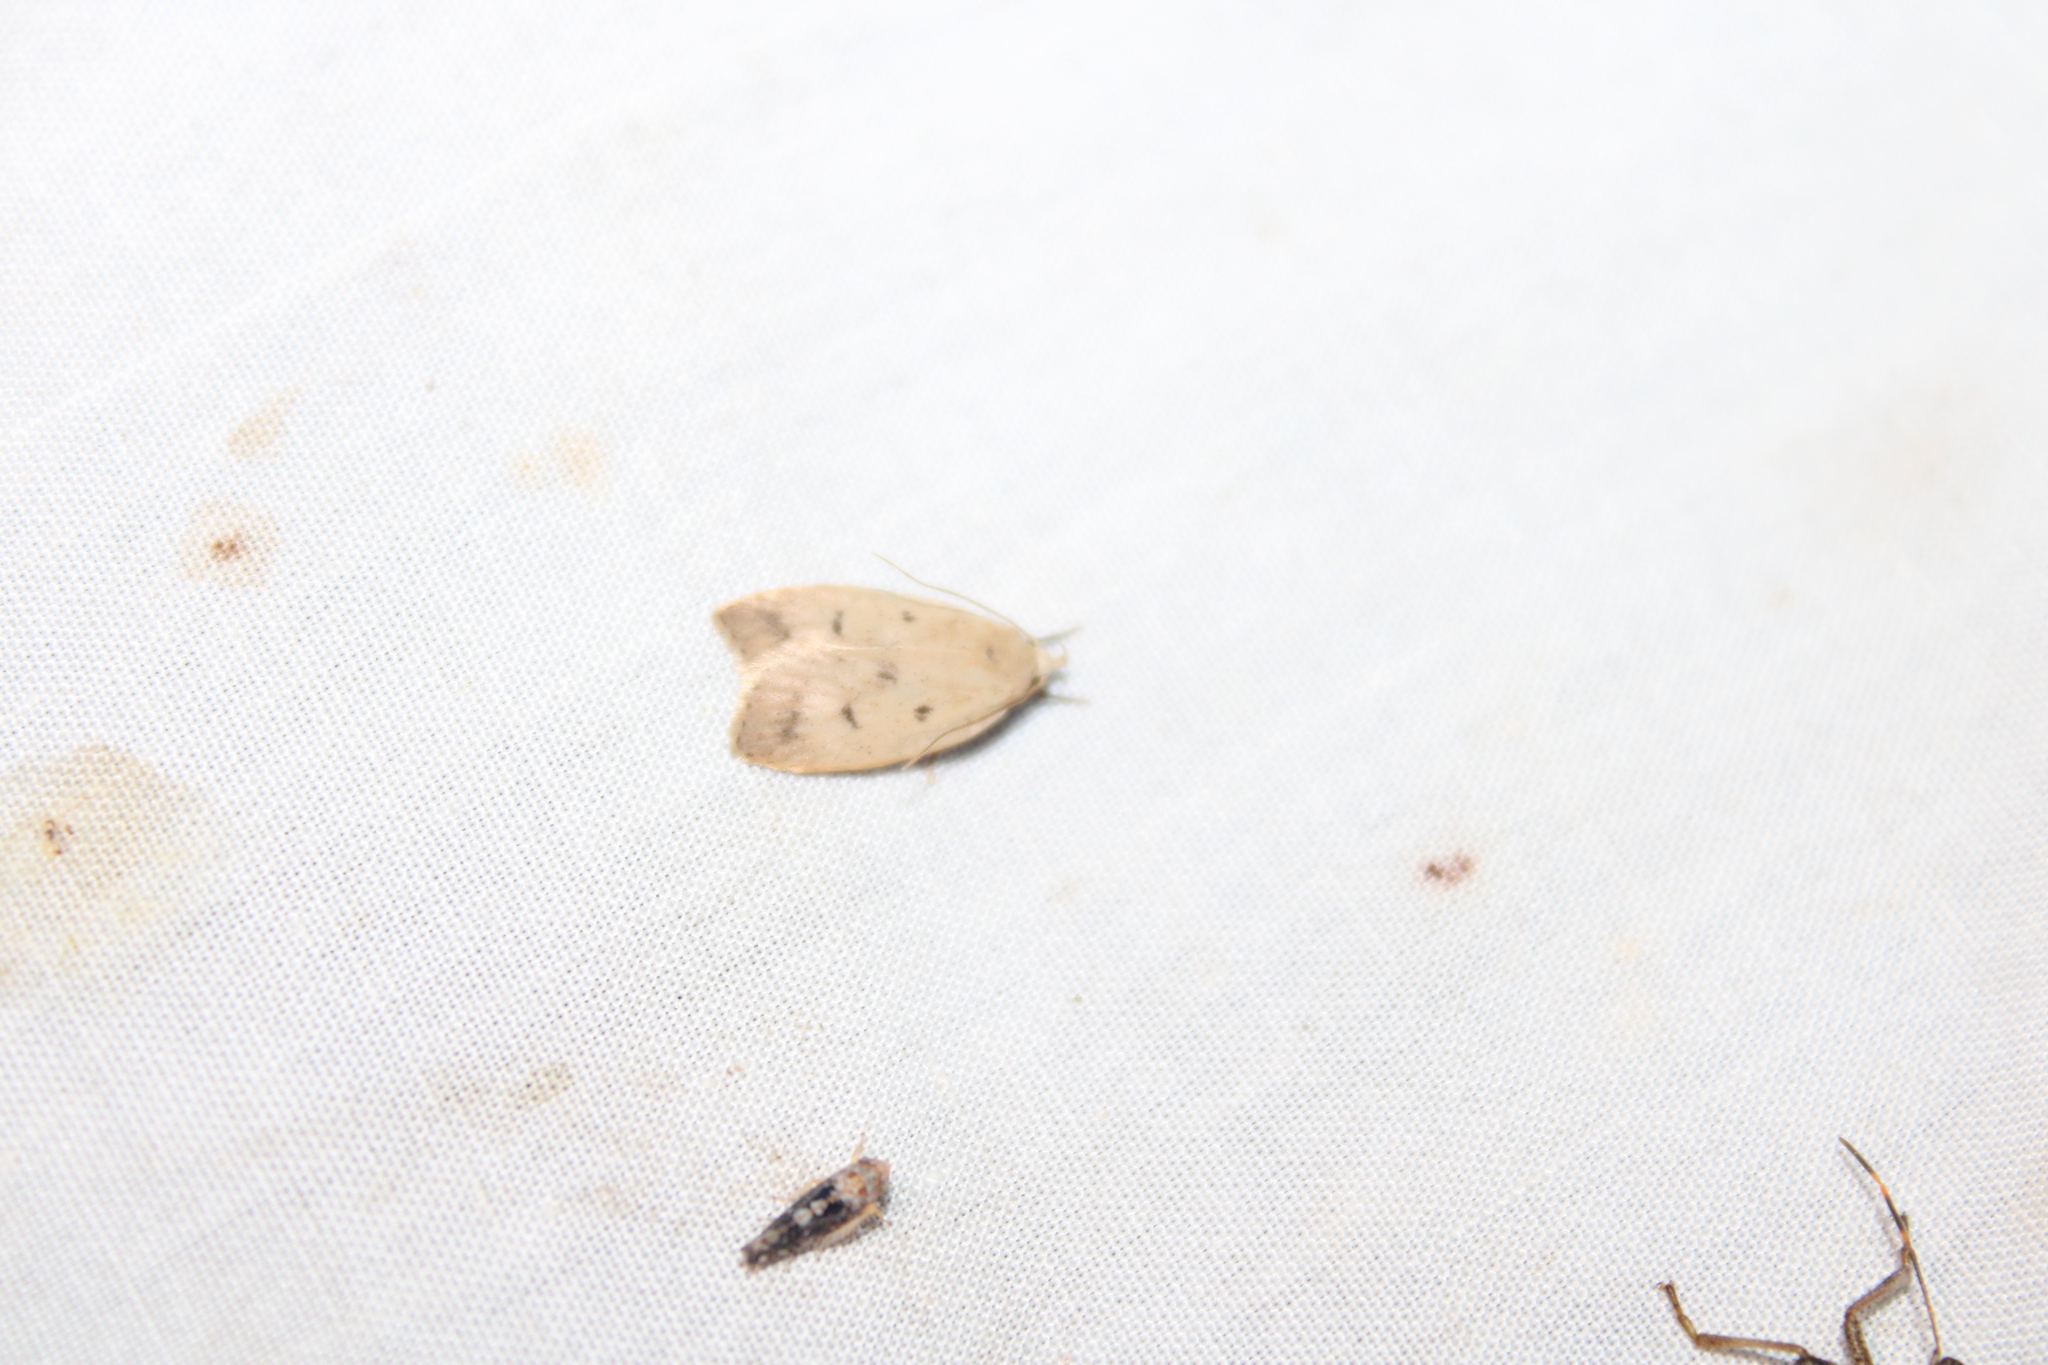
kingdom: Animalia
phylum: Arthropoda
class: Insecta
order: Lepidoptera
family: Peleopodidae
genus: Machimia
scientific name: Machimia tentoriferella
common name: Gold-striped leaftier moth
